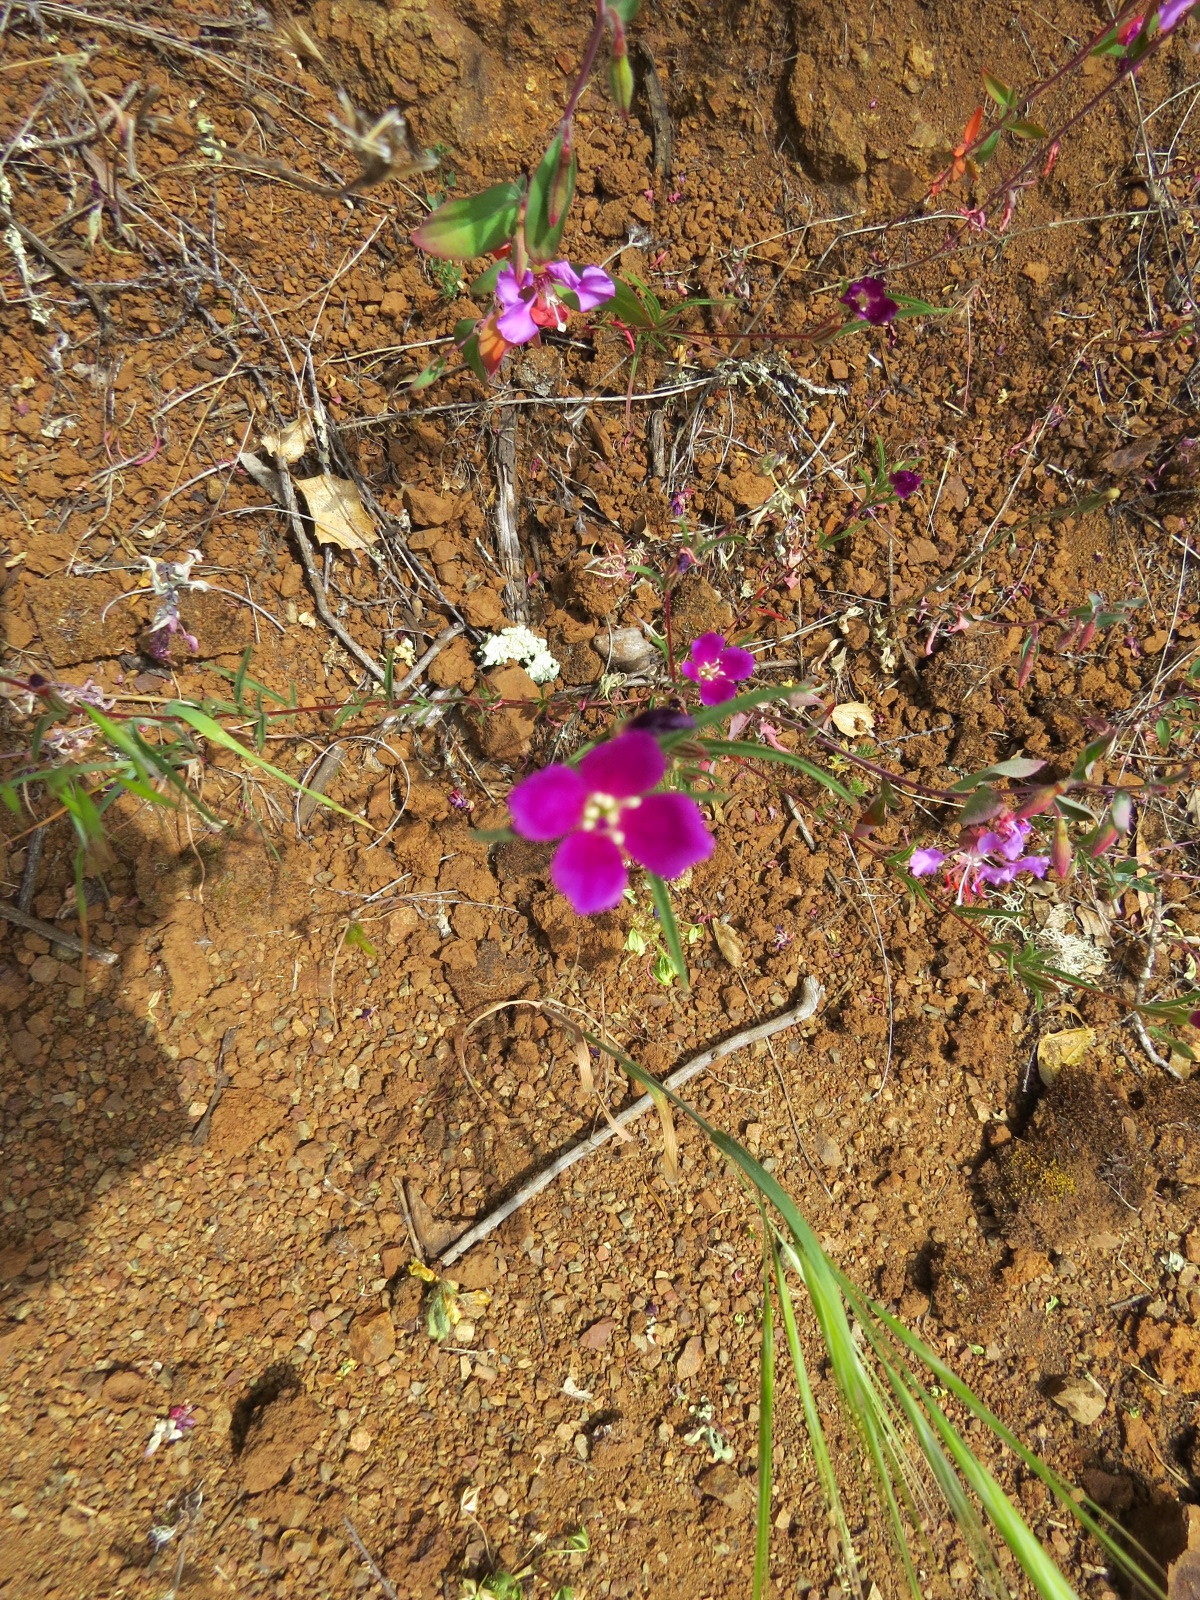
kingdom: Plantae
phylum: Tracheophyta
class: Magnoliopsida
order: Myrtales
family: Onagraceae
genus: Clarkia
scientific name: Clarkia purpurea
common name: Purple clarkia
